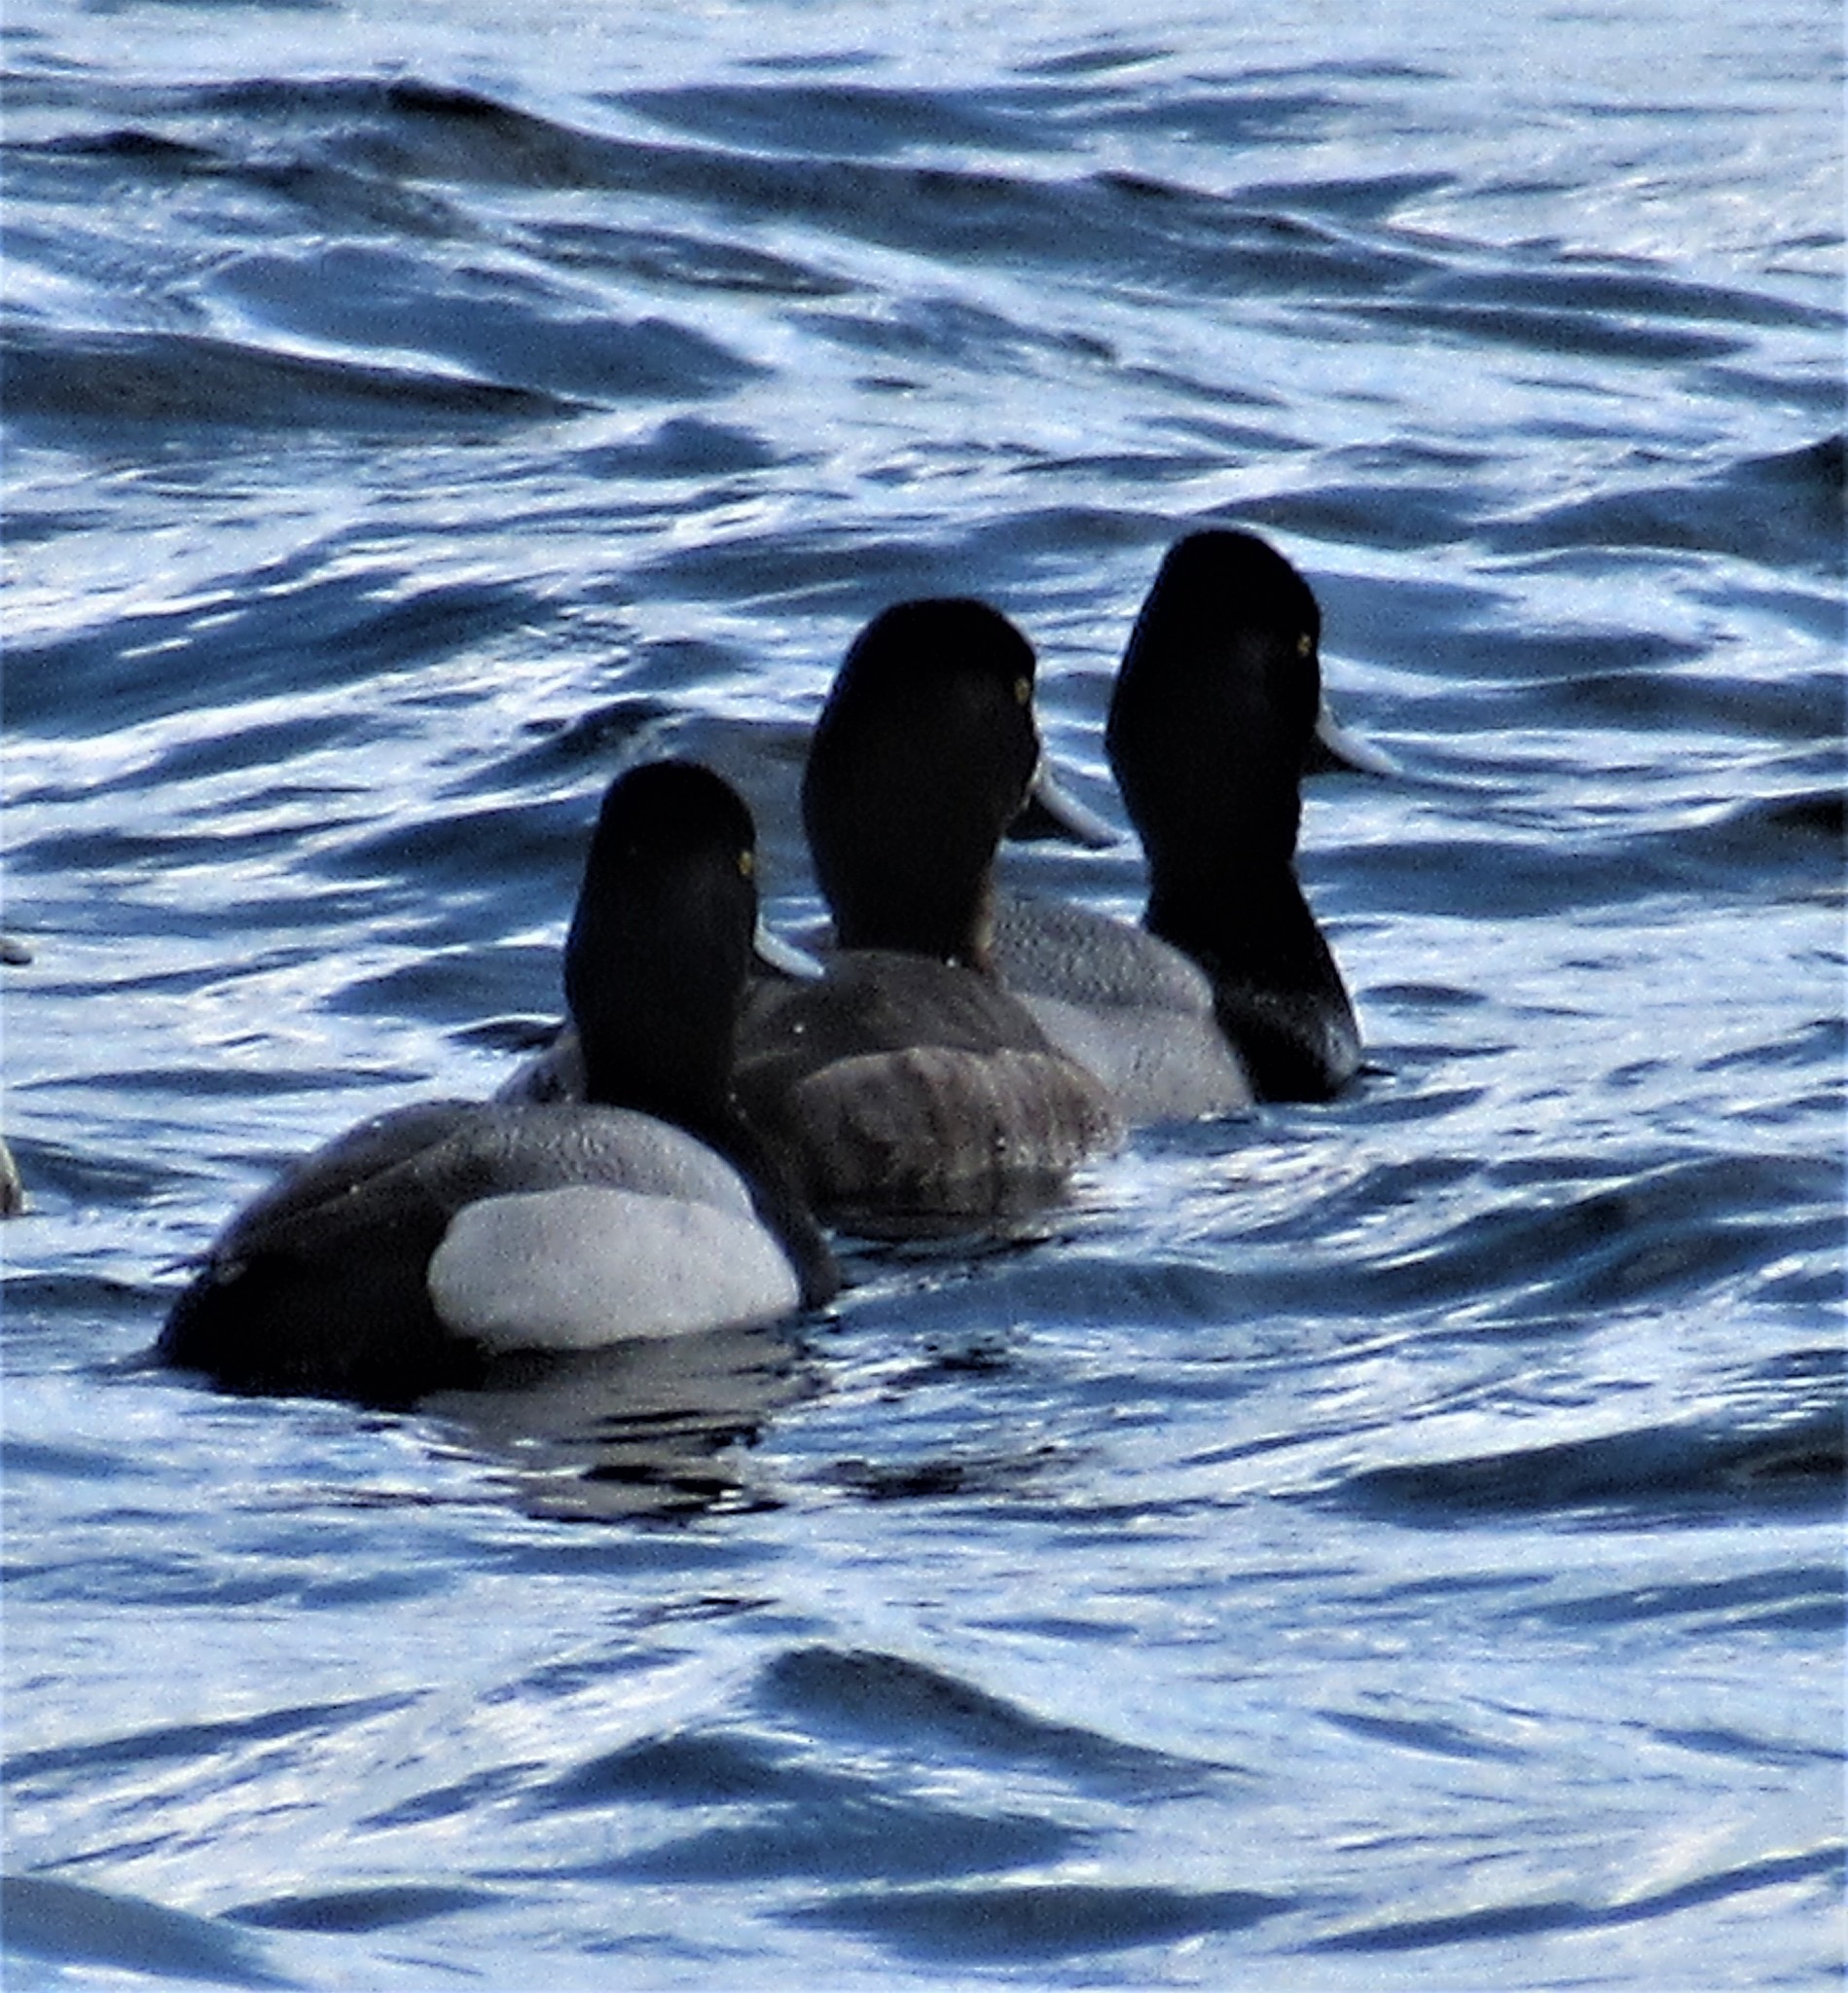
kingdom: Animalia
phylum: Chordata
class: Aves
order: Anseriformes
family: Anatidae
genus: Aythya
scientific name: Aythya affinis
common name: Lesser scaup
